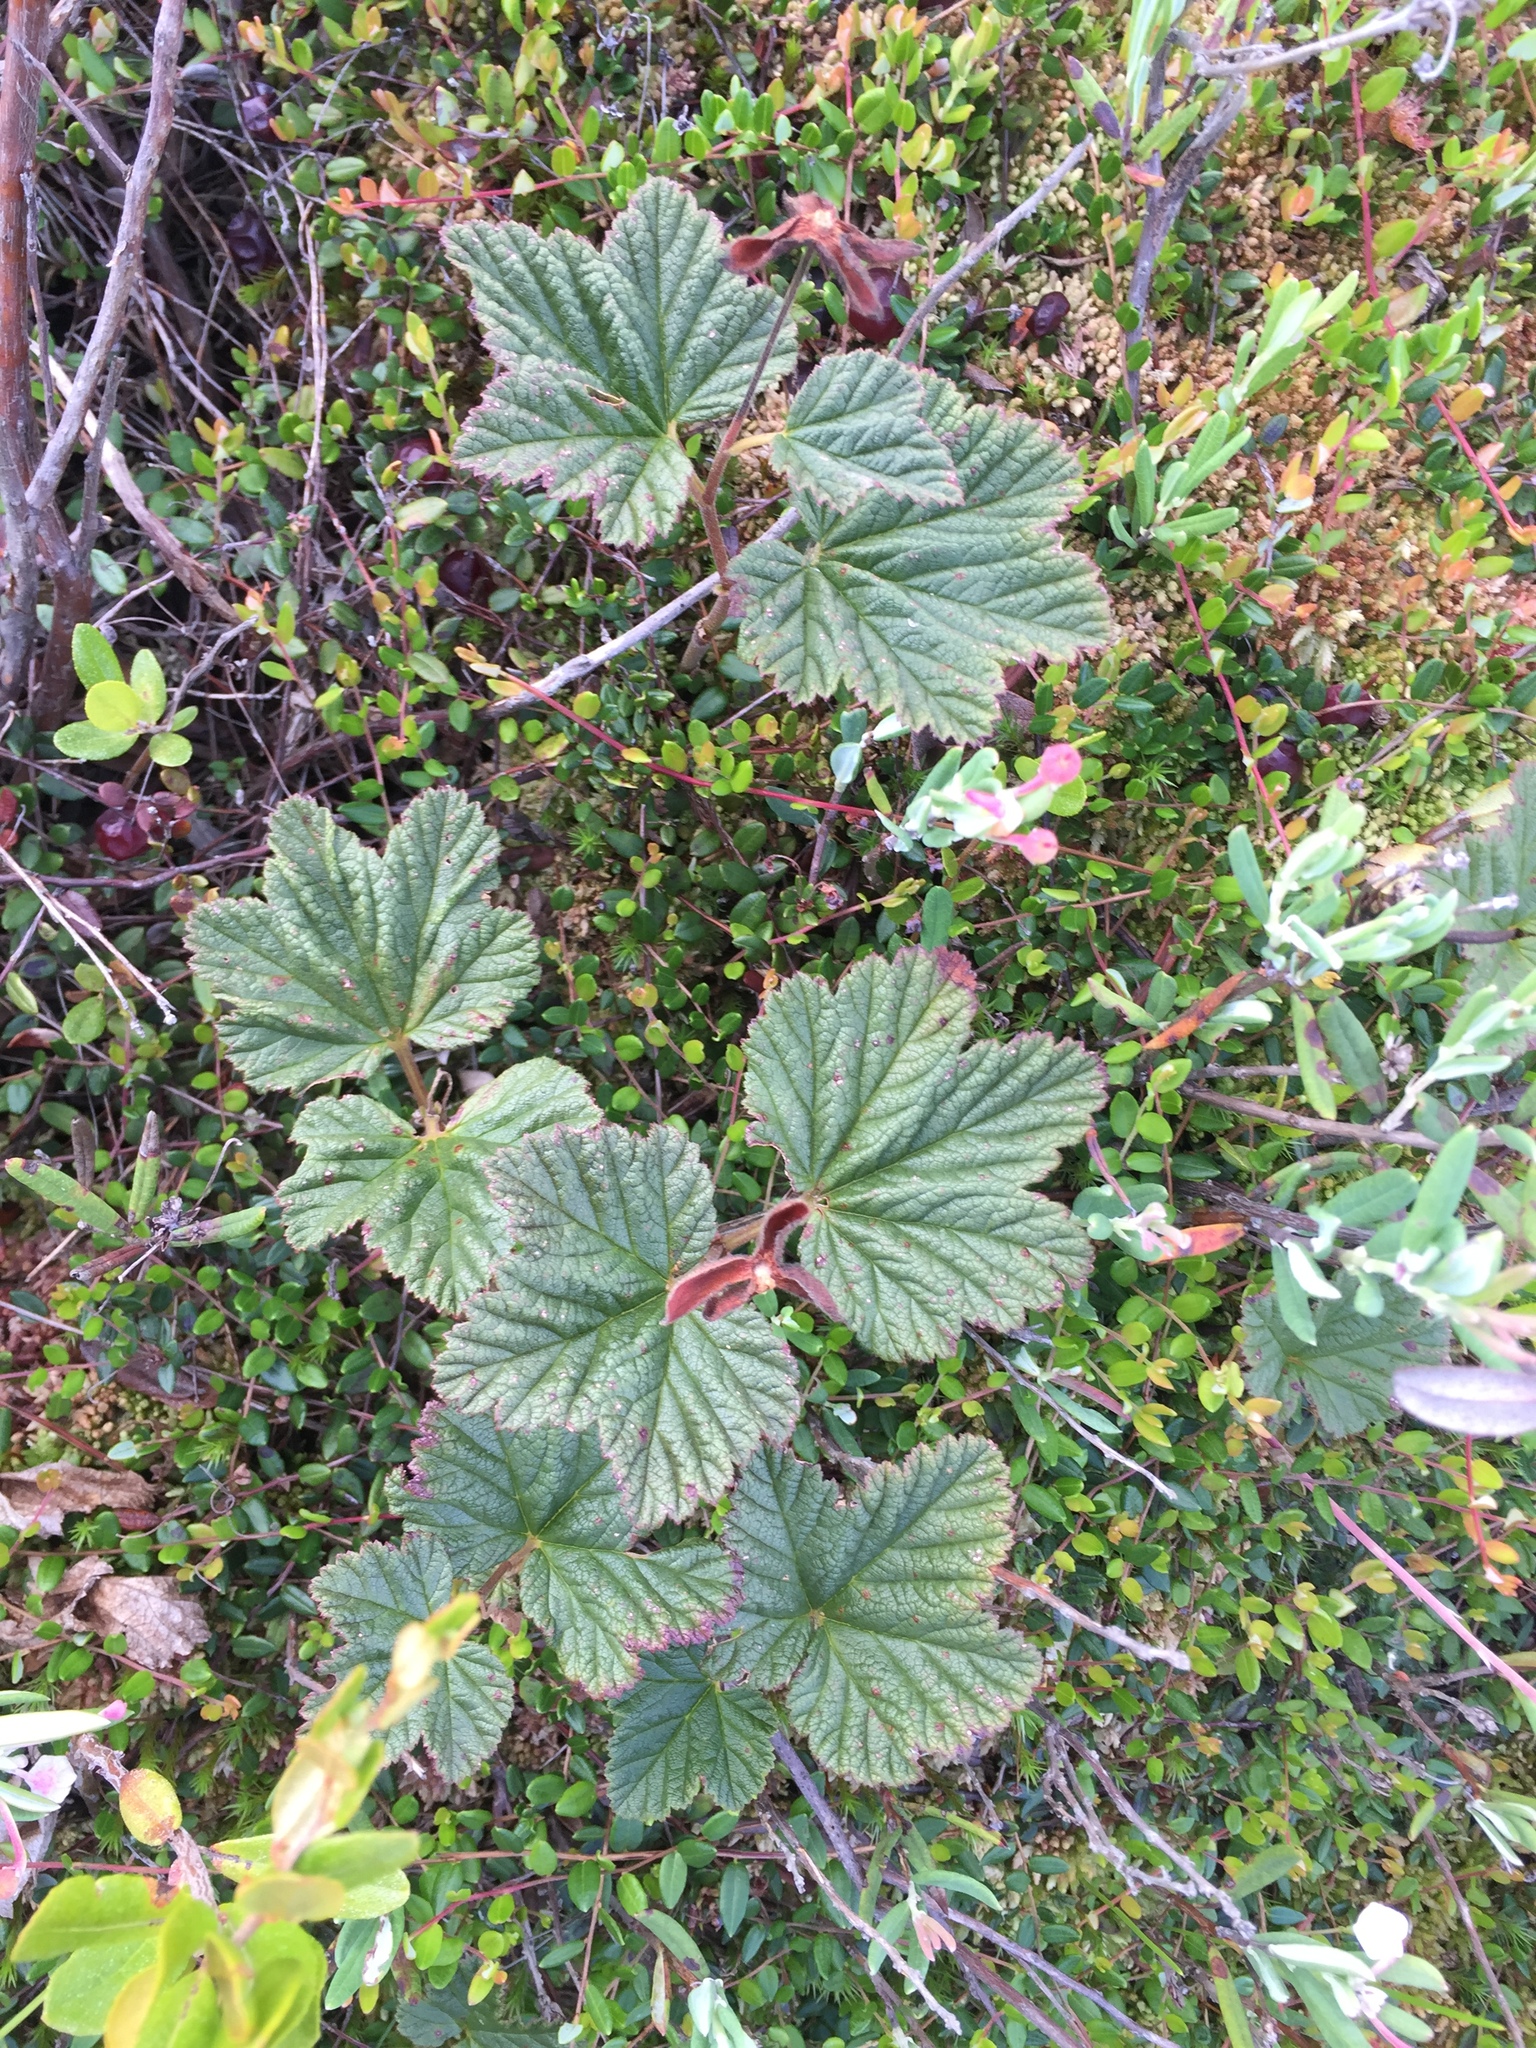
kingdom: Plantae
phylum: Tracheophyta
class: Magnoliopsida
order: Rosales
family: Rosaceae
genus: Rubus
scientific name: Rubus chamaemorus
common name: Cloudberry
